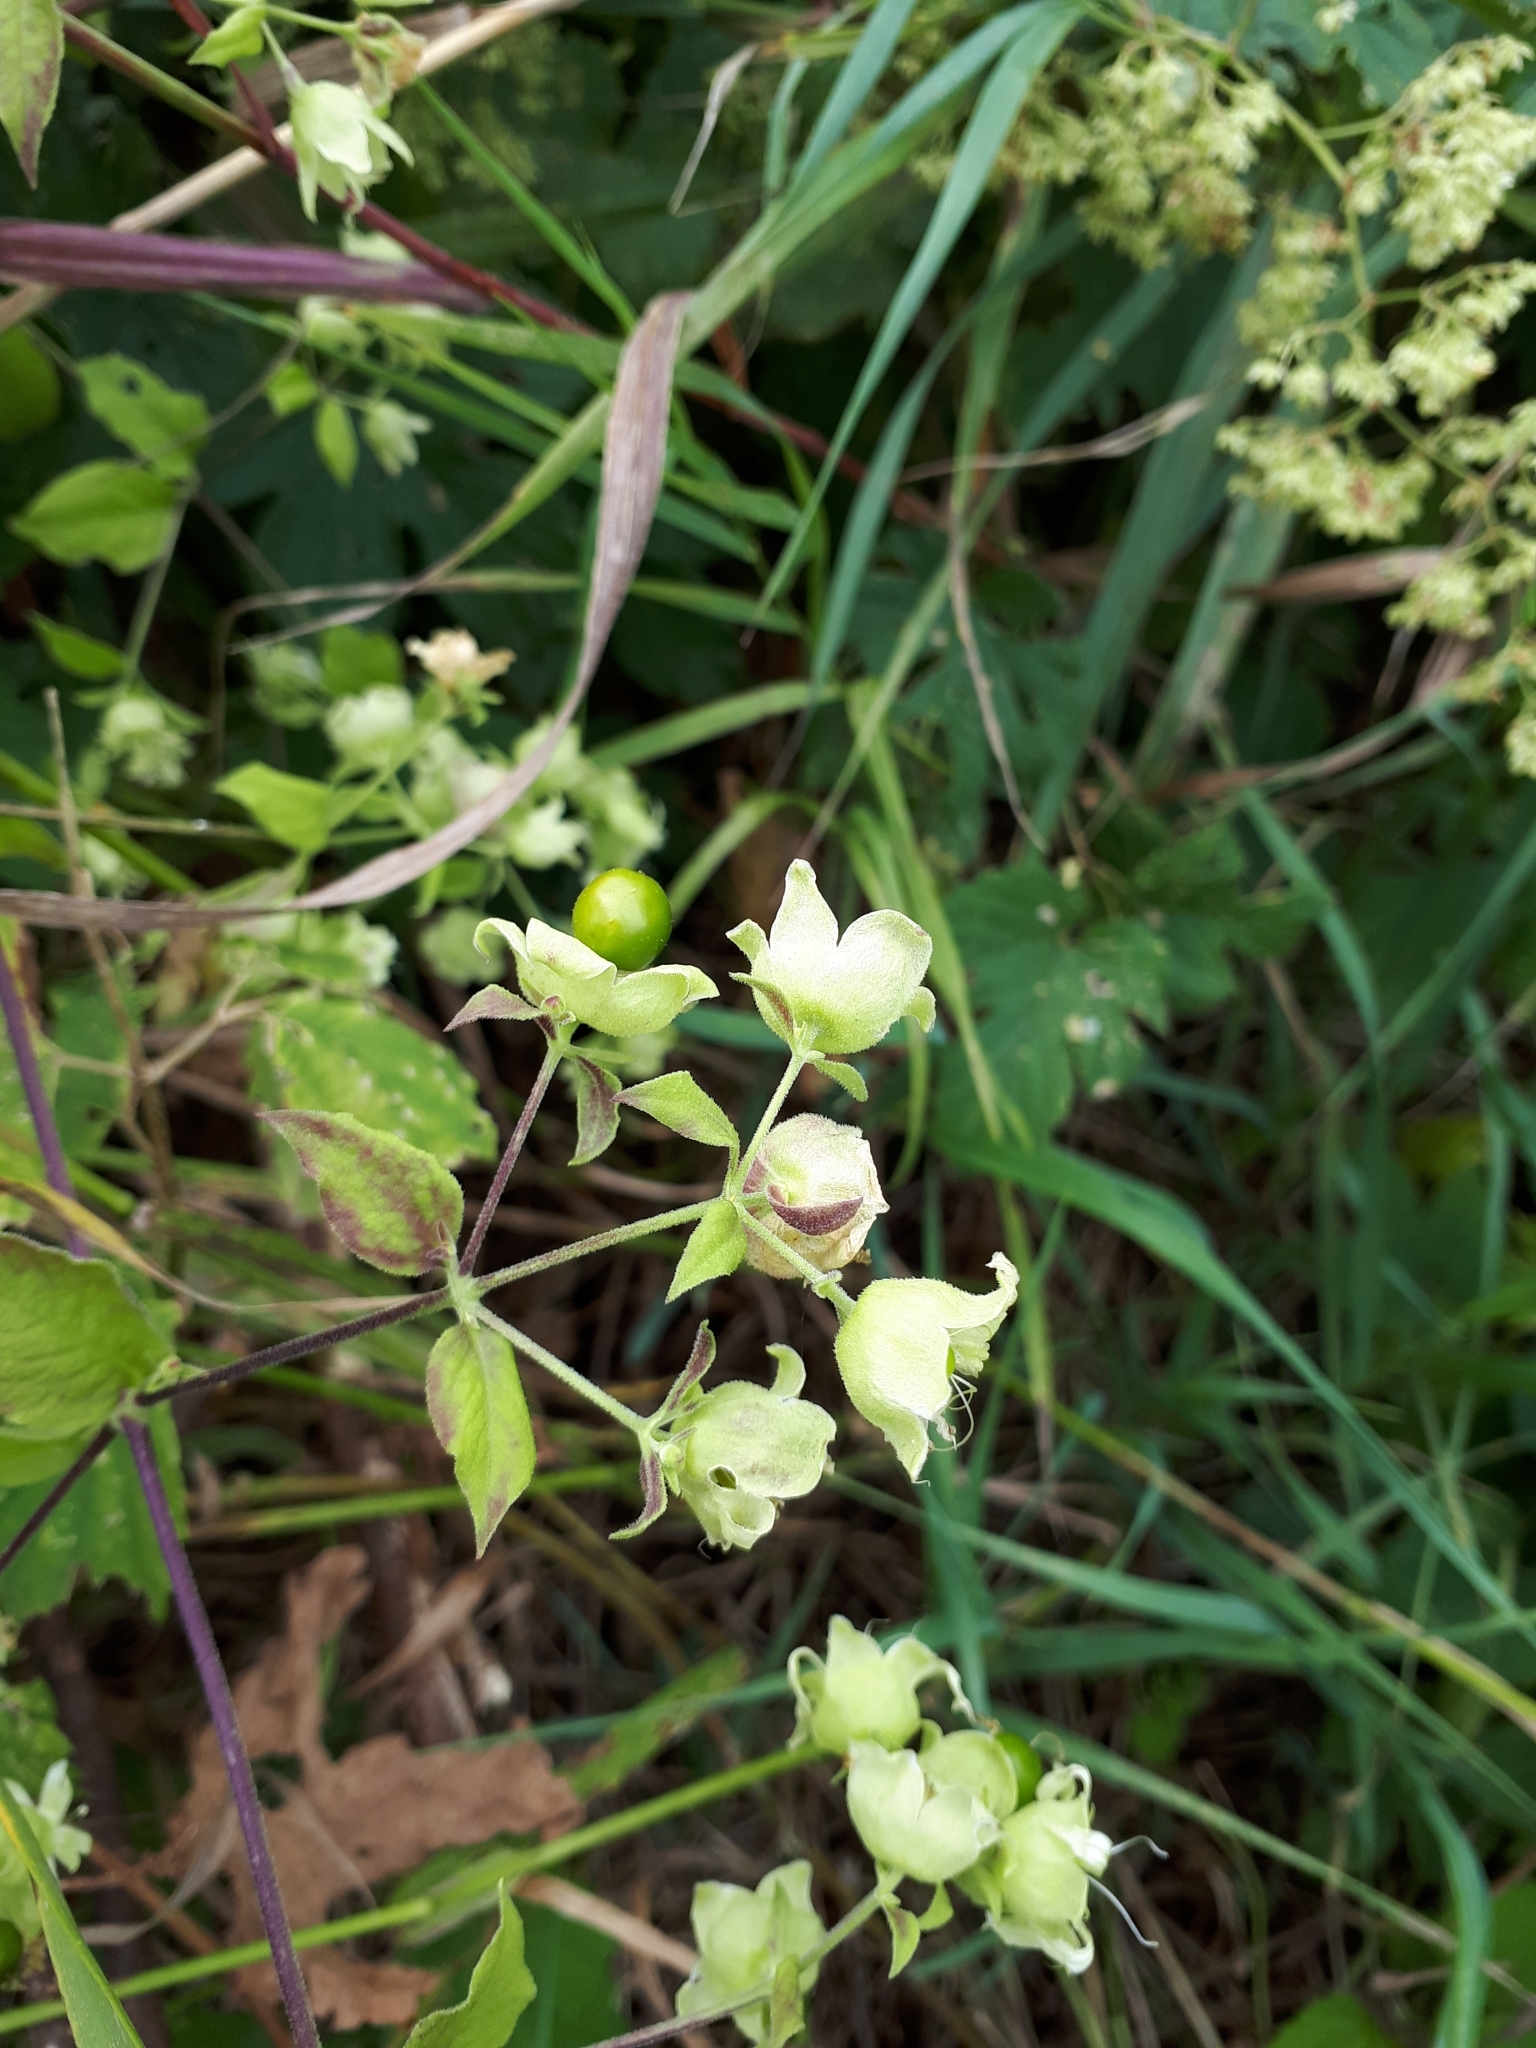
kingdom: Plantae
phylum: Tracheophyta
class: Magnoliopsida
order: Caryophyllales
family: Caryophyllaceae
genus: Silene
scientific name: Silene baccifera
